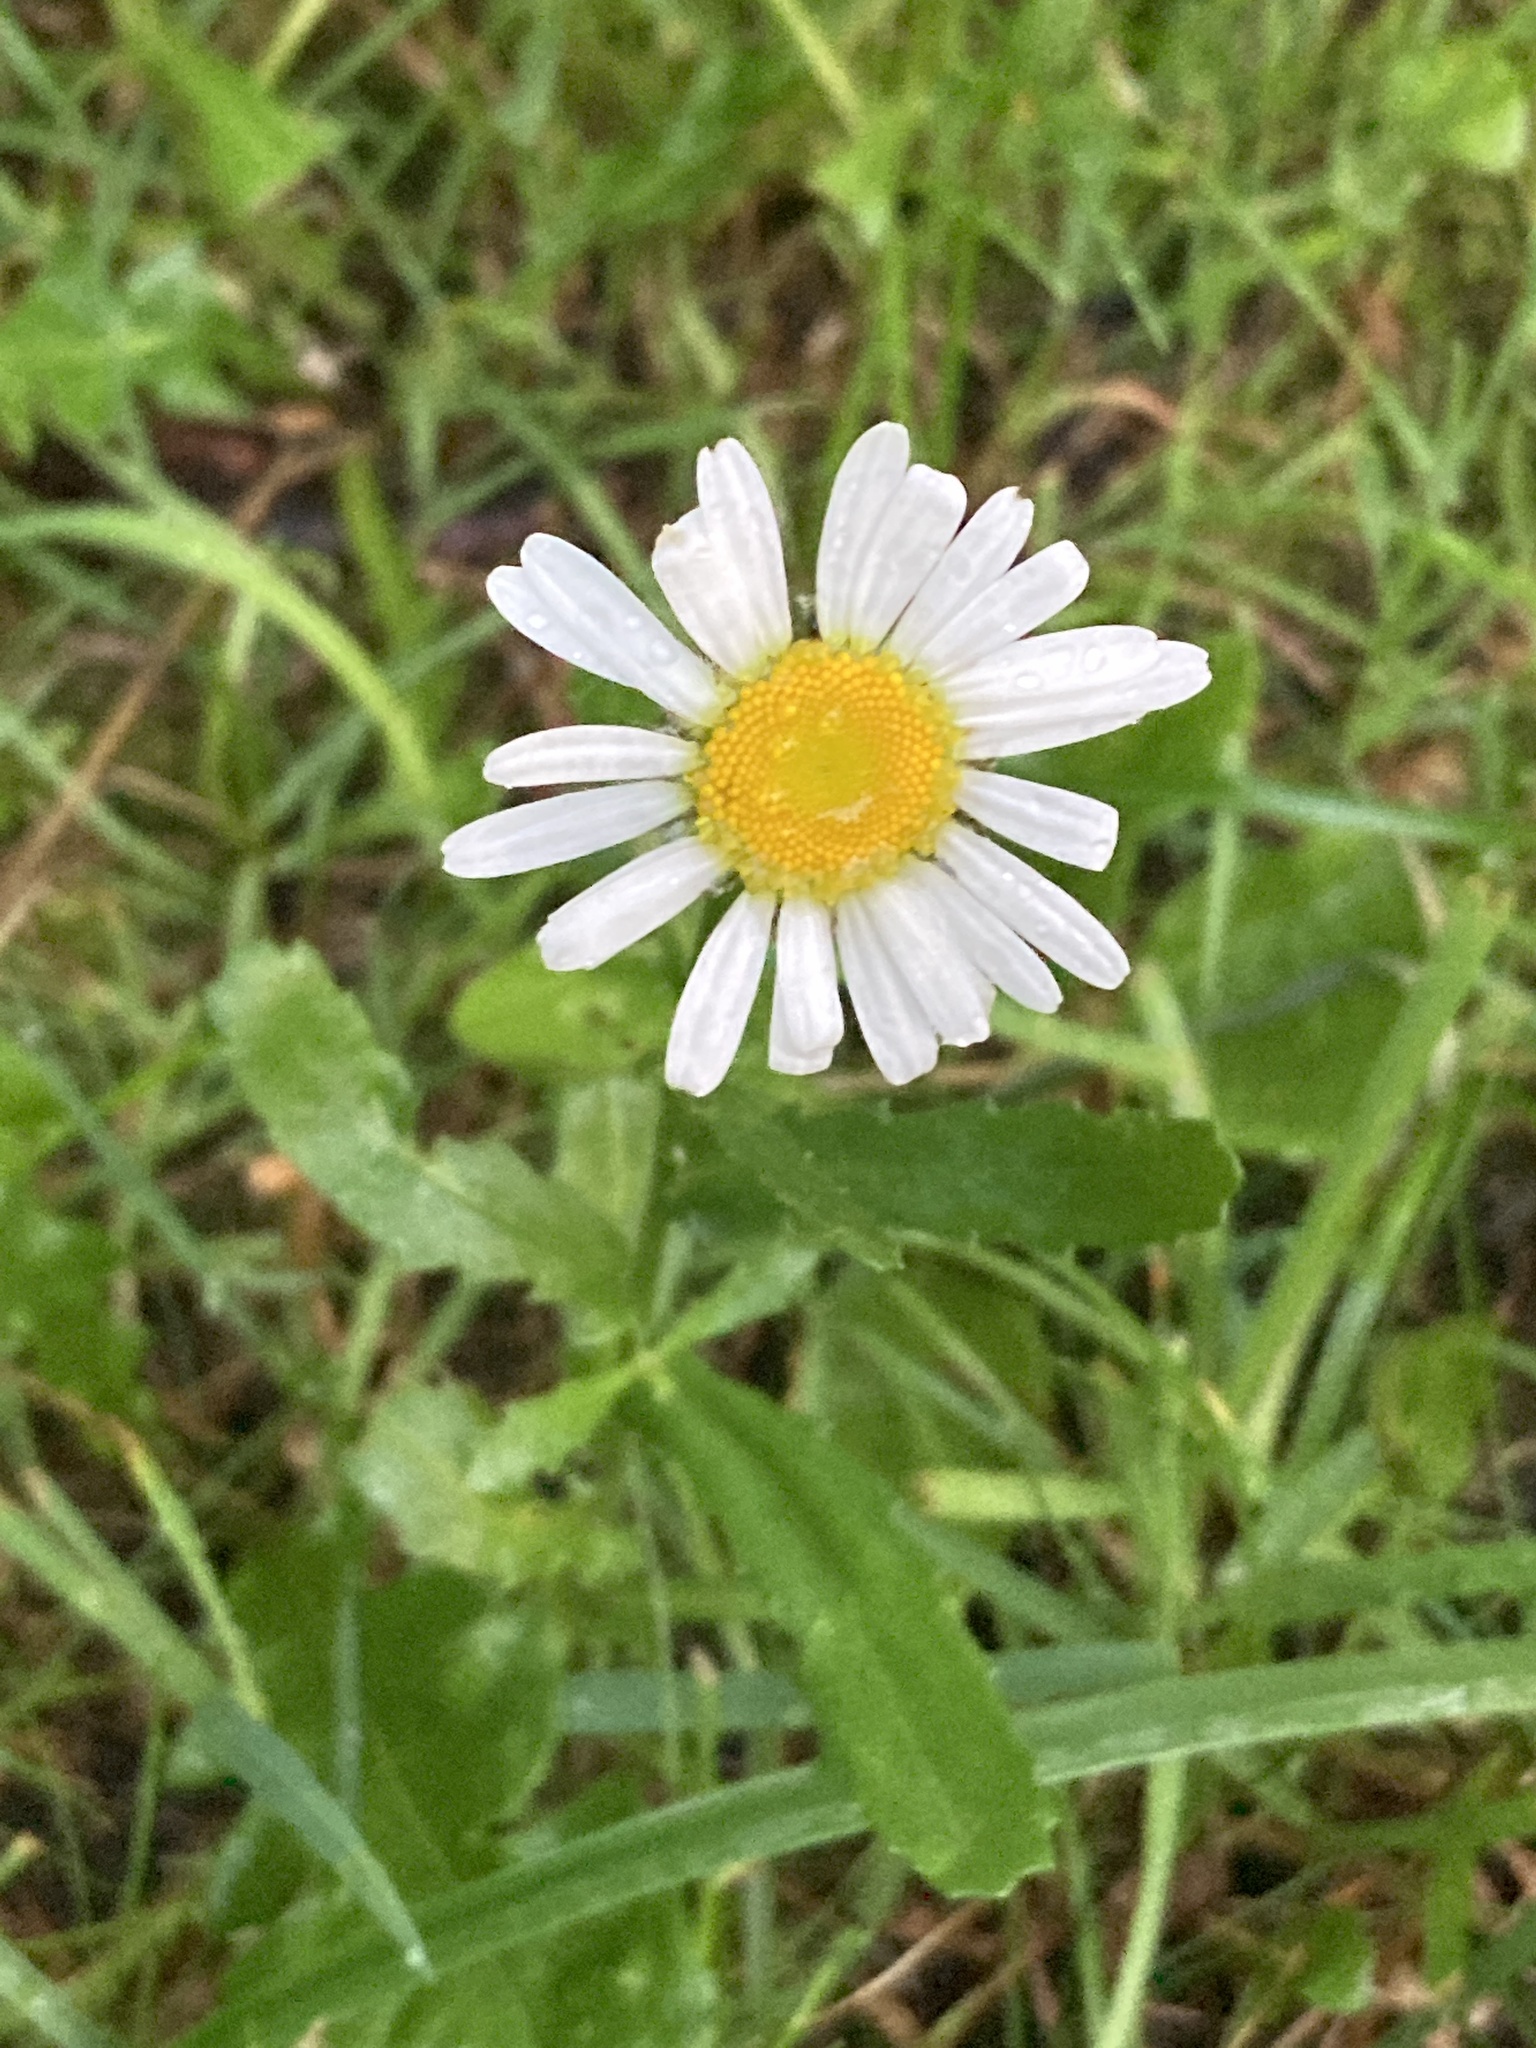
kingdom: Plantae
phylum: Tracheophyta
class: Magnoliopsida
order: Asterales
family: Asteraceae
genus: Leucanthemum
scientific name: Leucanthemum vulgare
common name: Oxeye daisy
